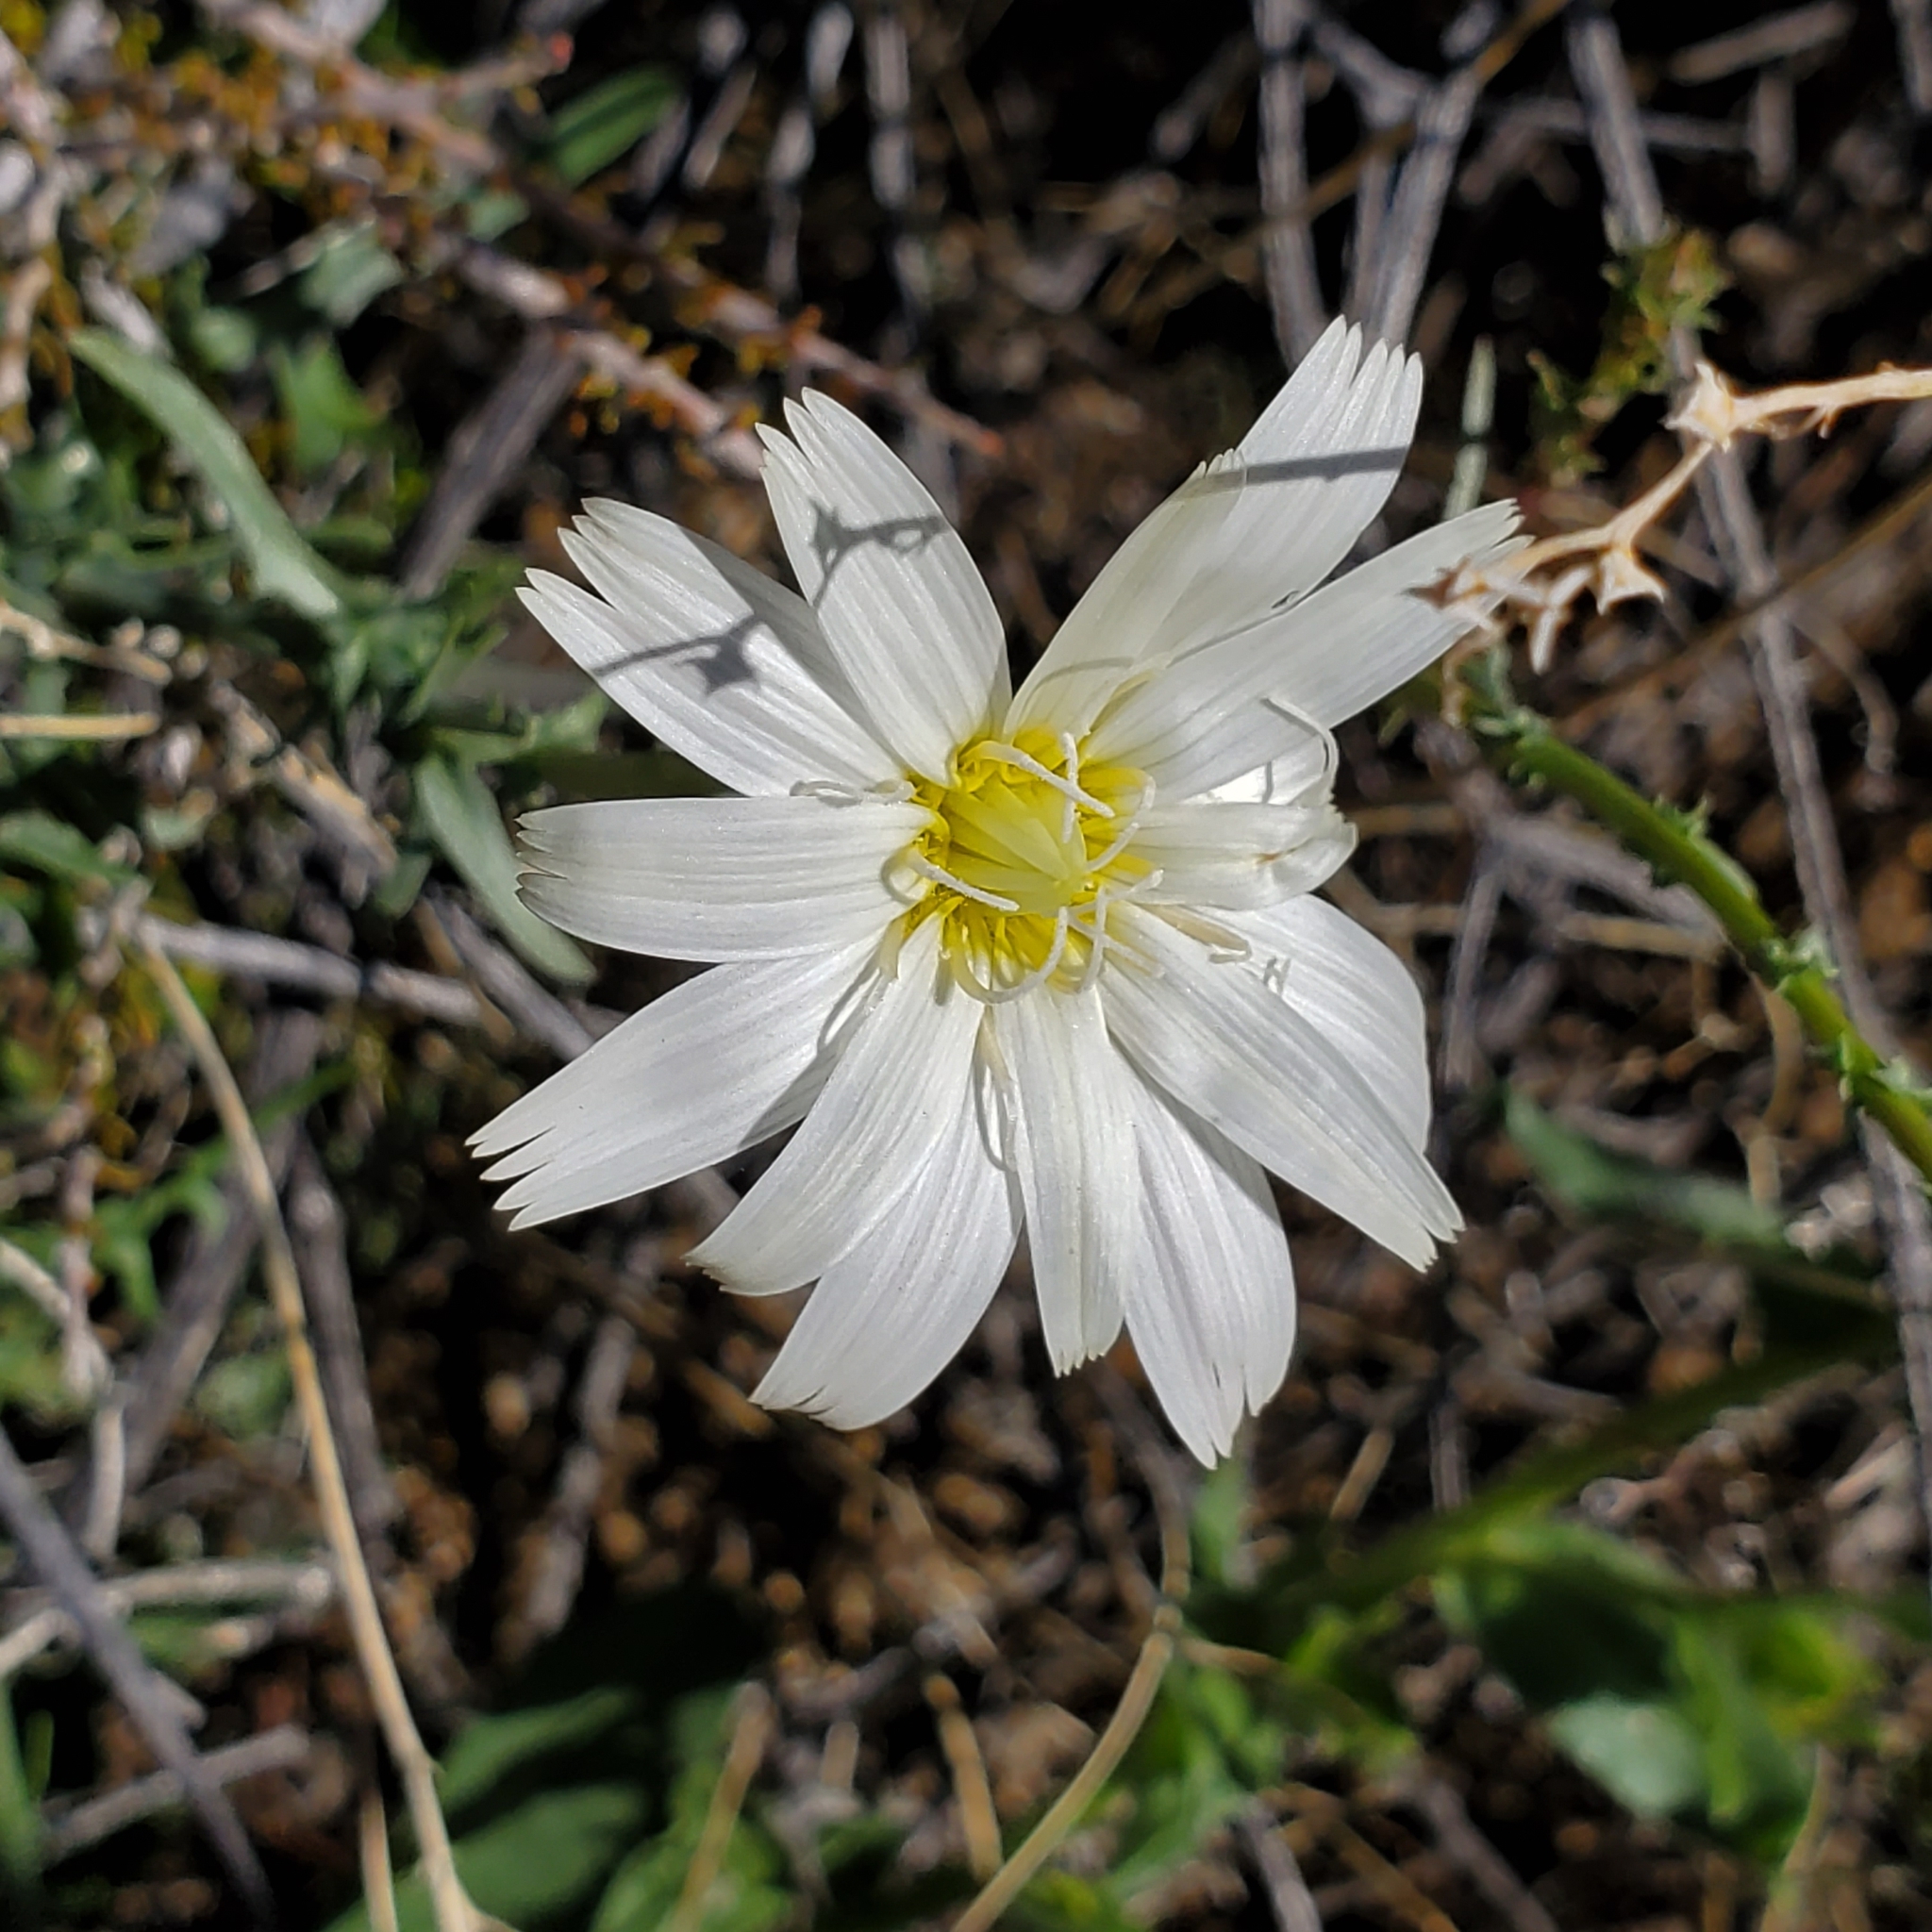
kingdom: Plantae
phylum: Tracheophyta
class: Magnoliopsida
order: Asterales
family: Asteraceae
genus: Rafinesquia
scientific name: Rafinesquia neomexicana
